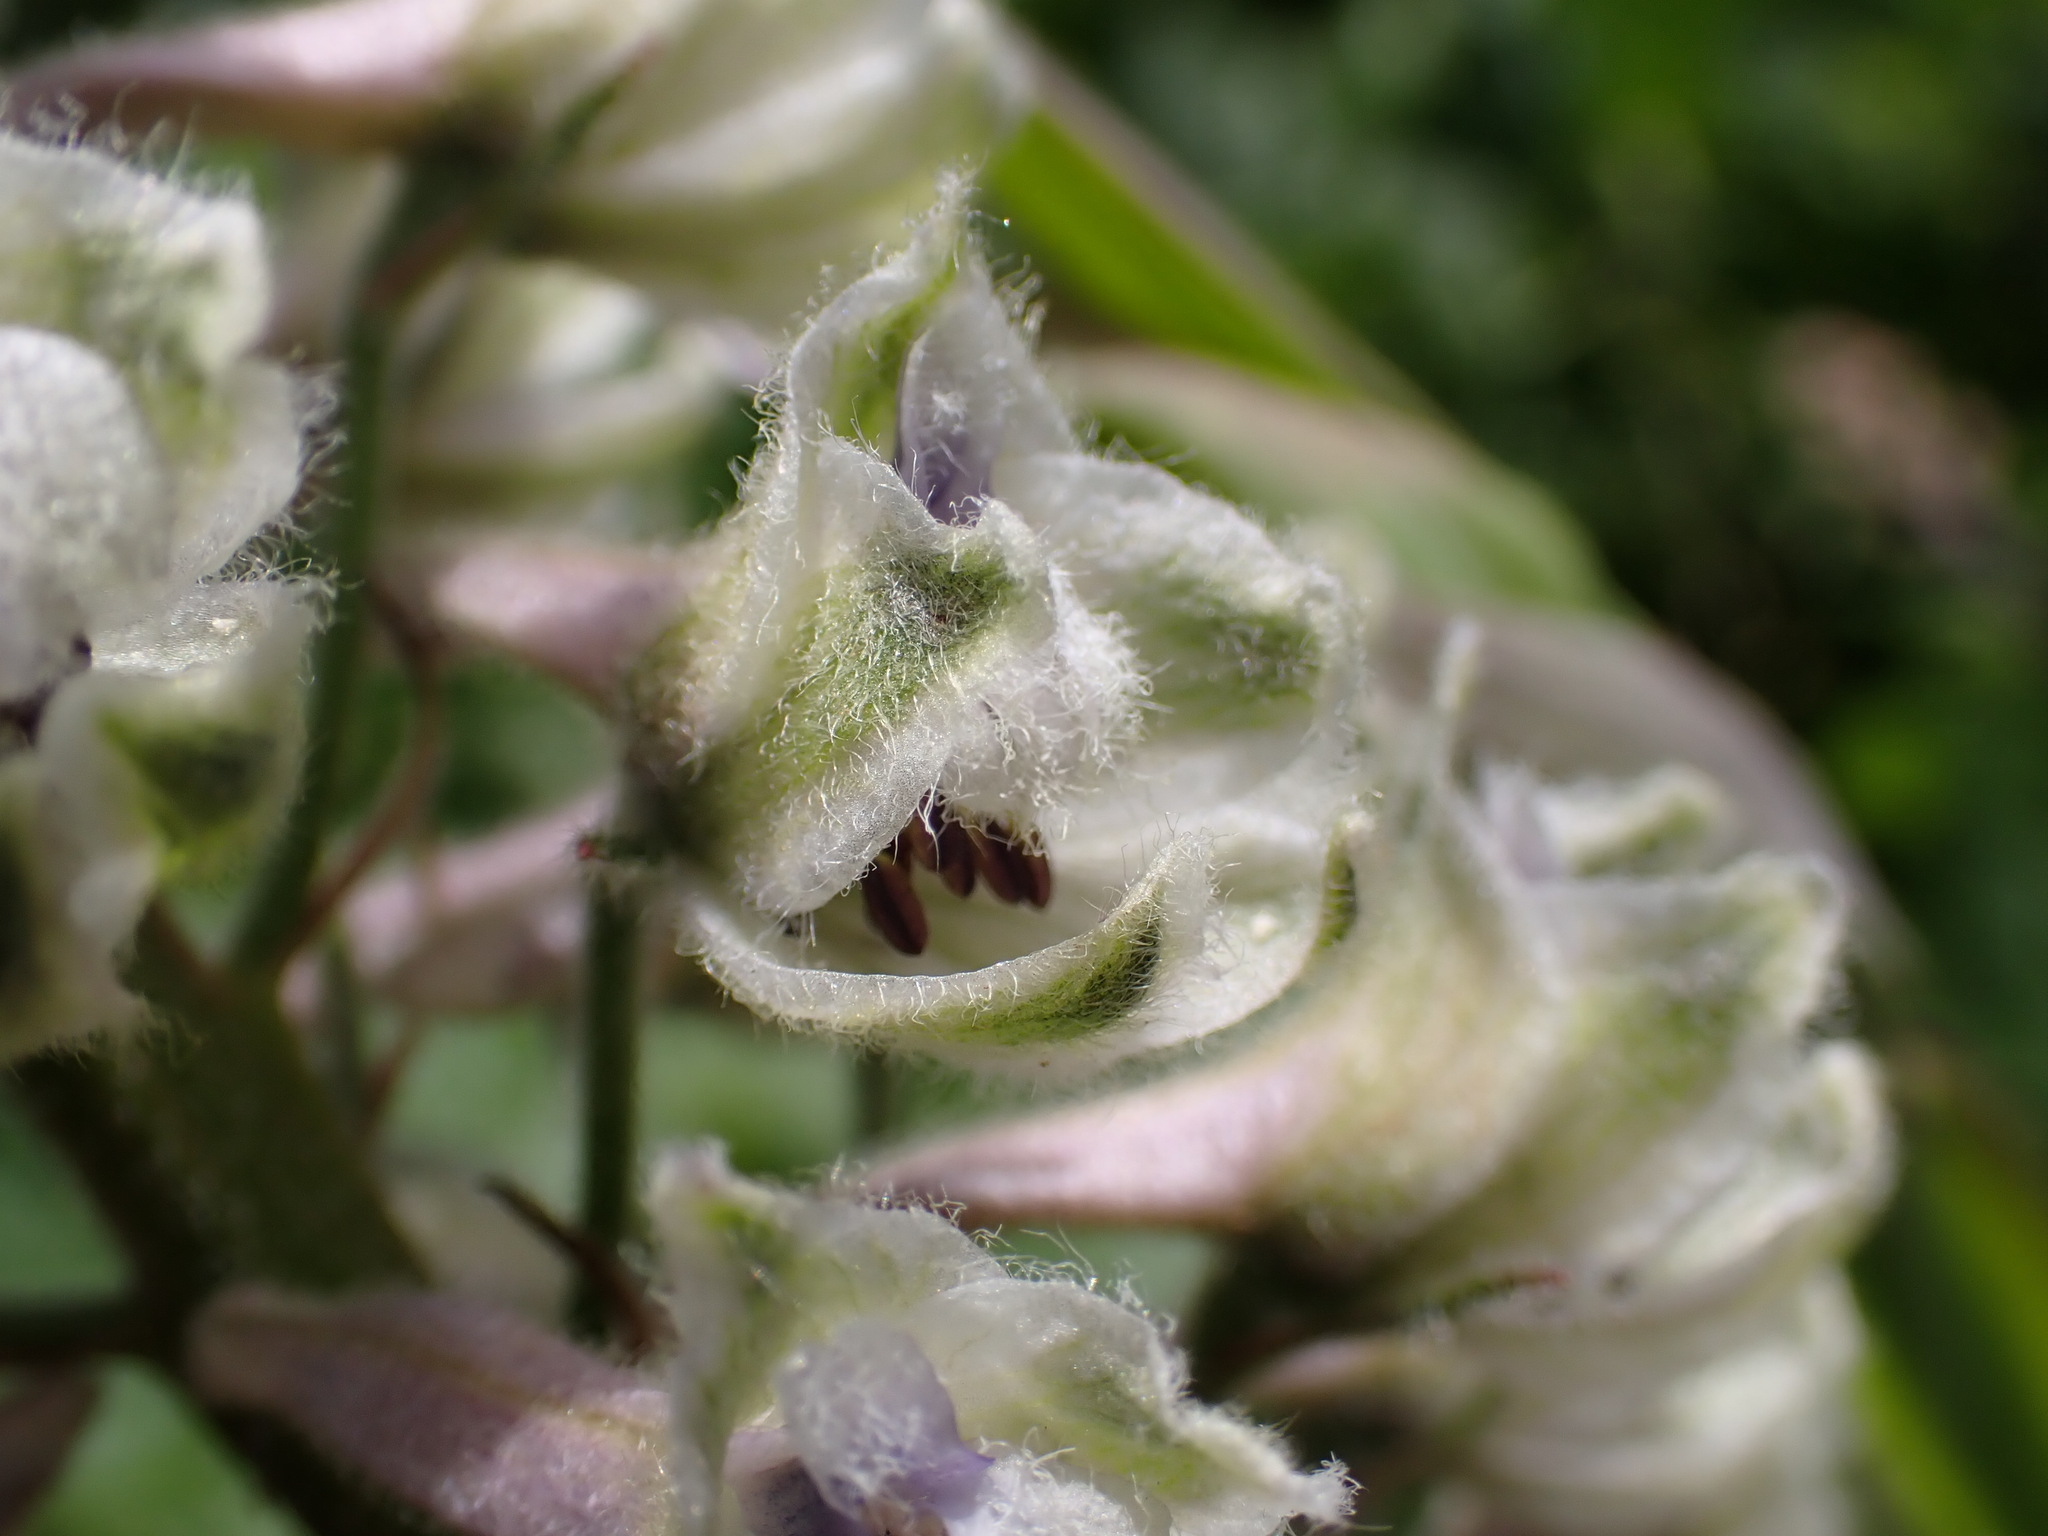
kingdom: Plantae
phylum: Tracheophyta
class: Magnoliopsida
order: Ranunculales
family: Ranunculaceae
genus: Delphinium
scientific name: Delphinium californicum
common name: California larkspur
